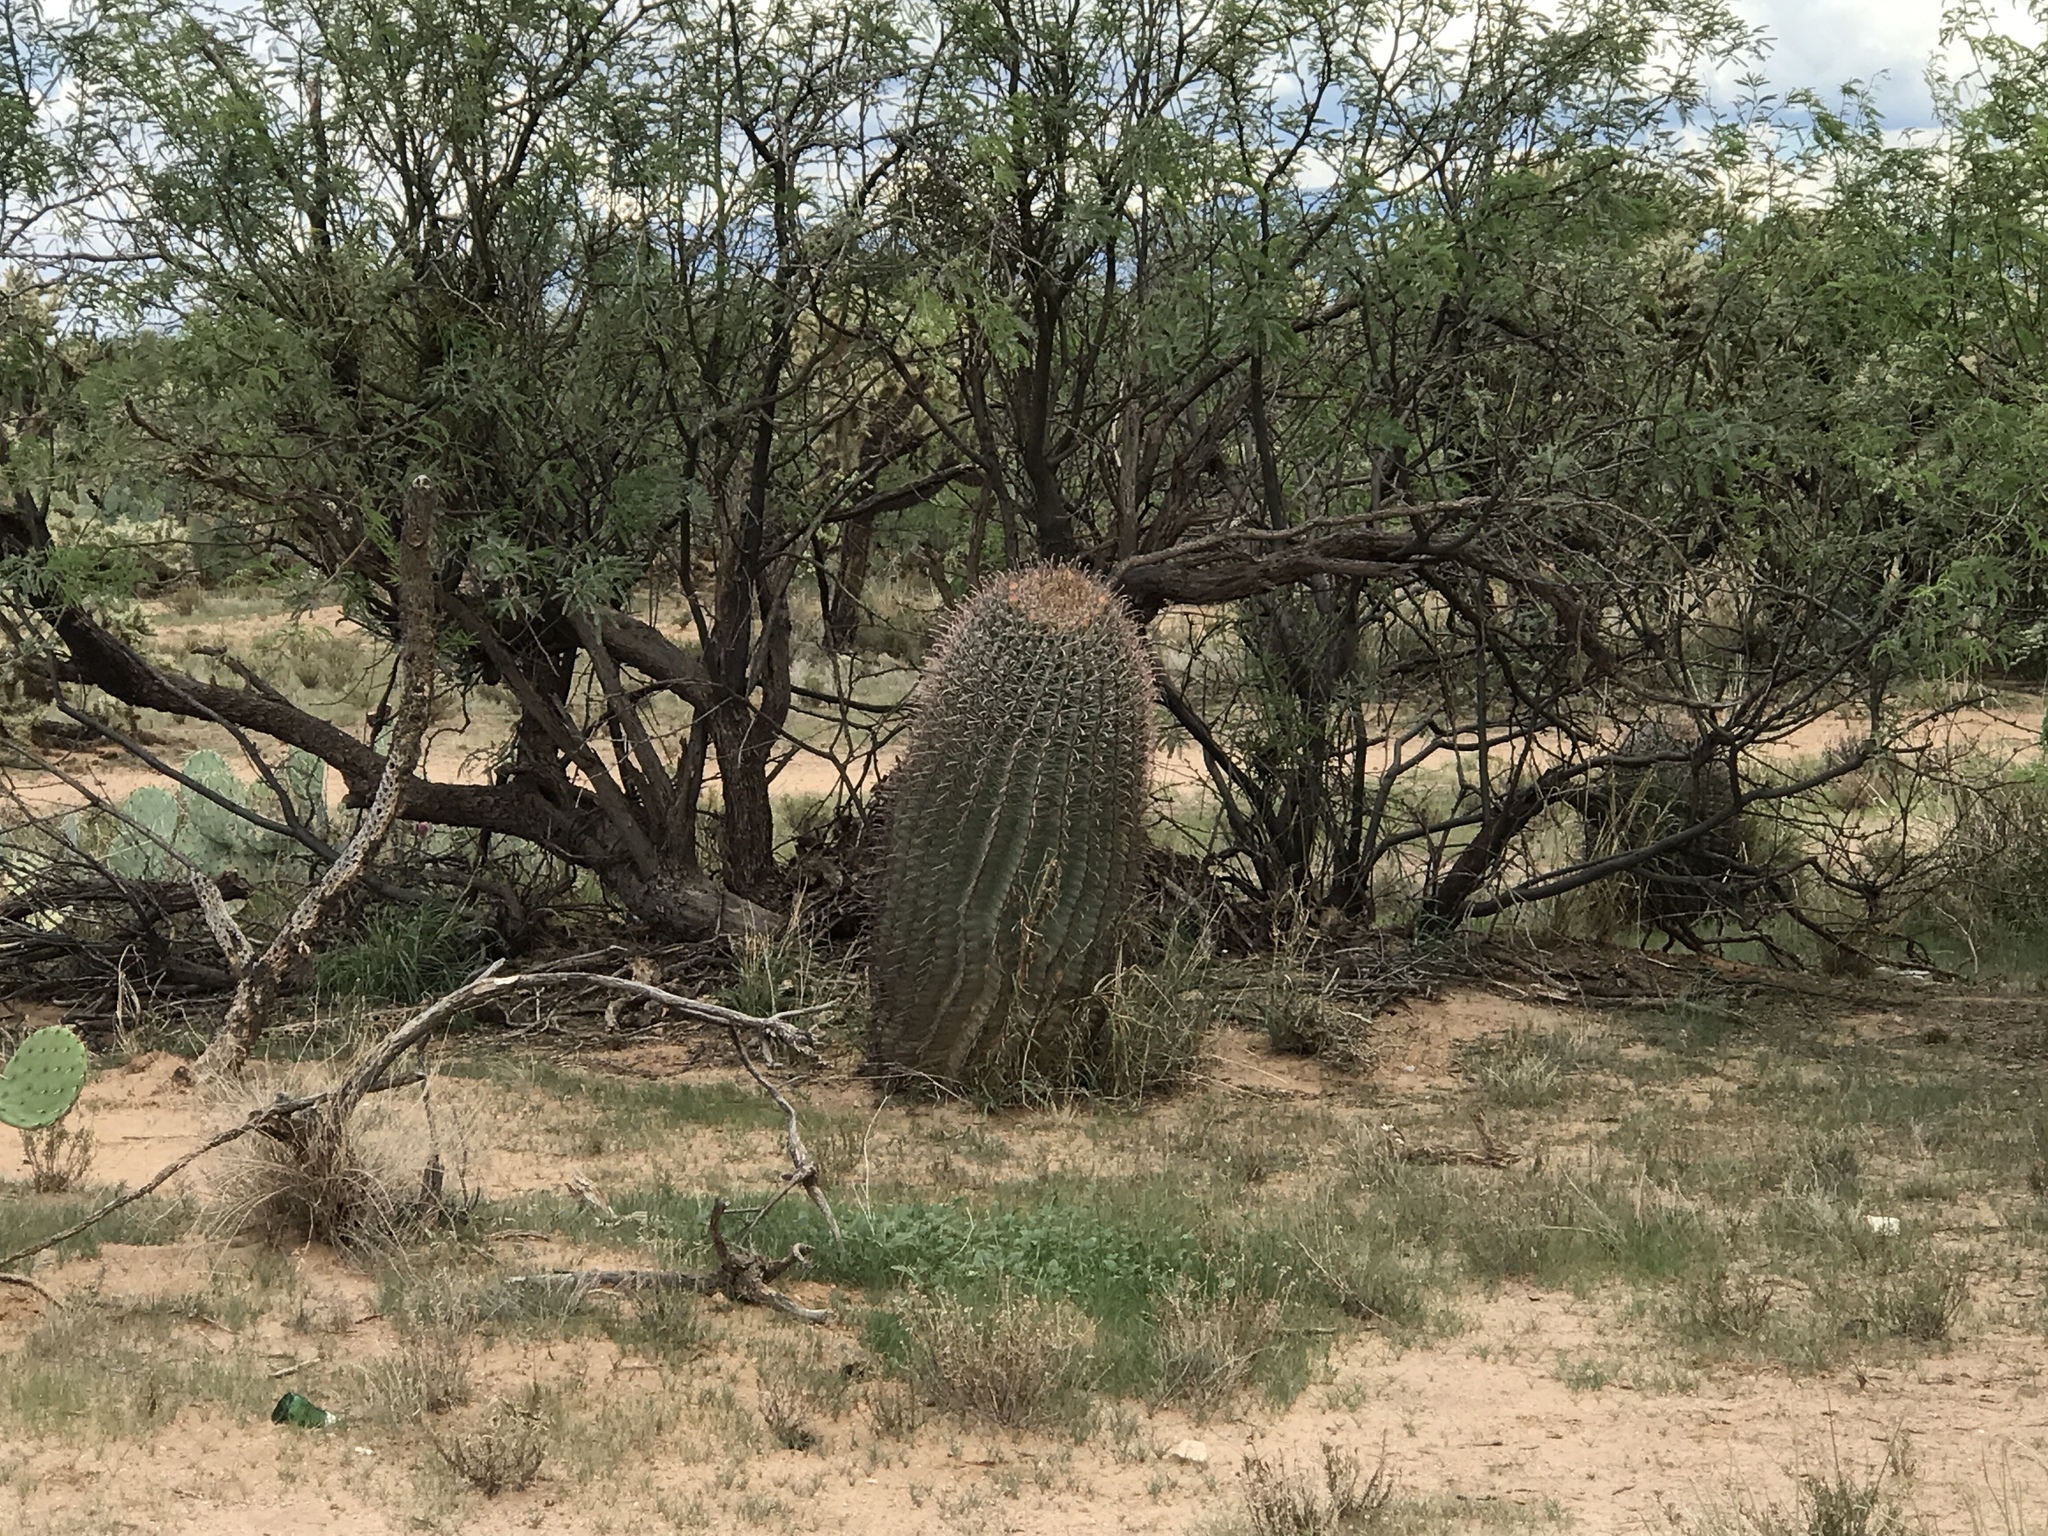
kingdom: Plantae
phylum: Tracheophyta
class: Magnoliopsida
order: Caryophyllales
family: Cactaceae
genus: Ferocactus
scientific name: Ferocactus wislizeni
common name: Candy barrel cactus
